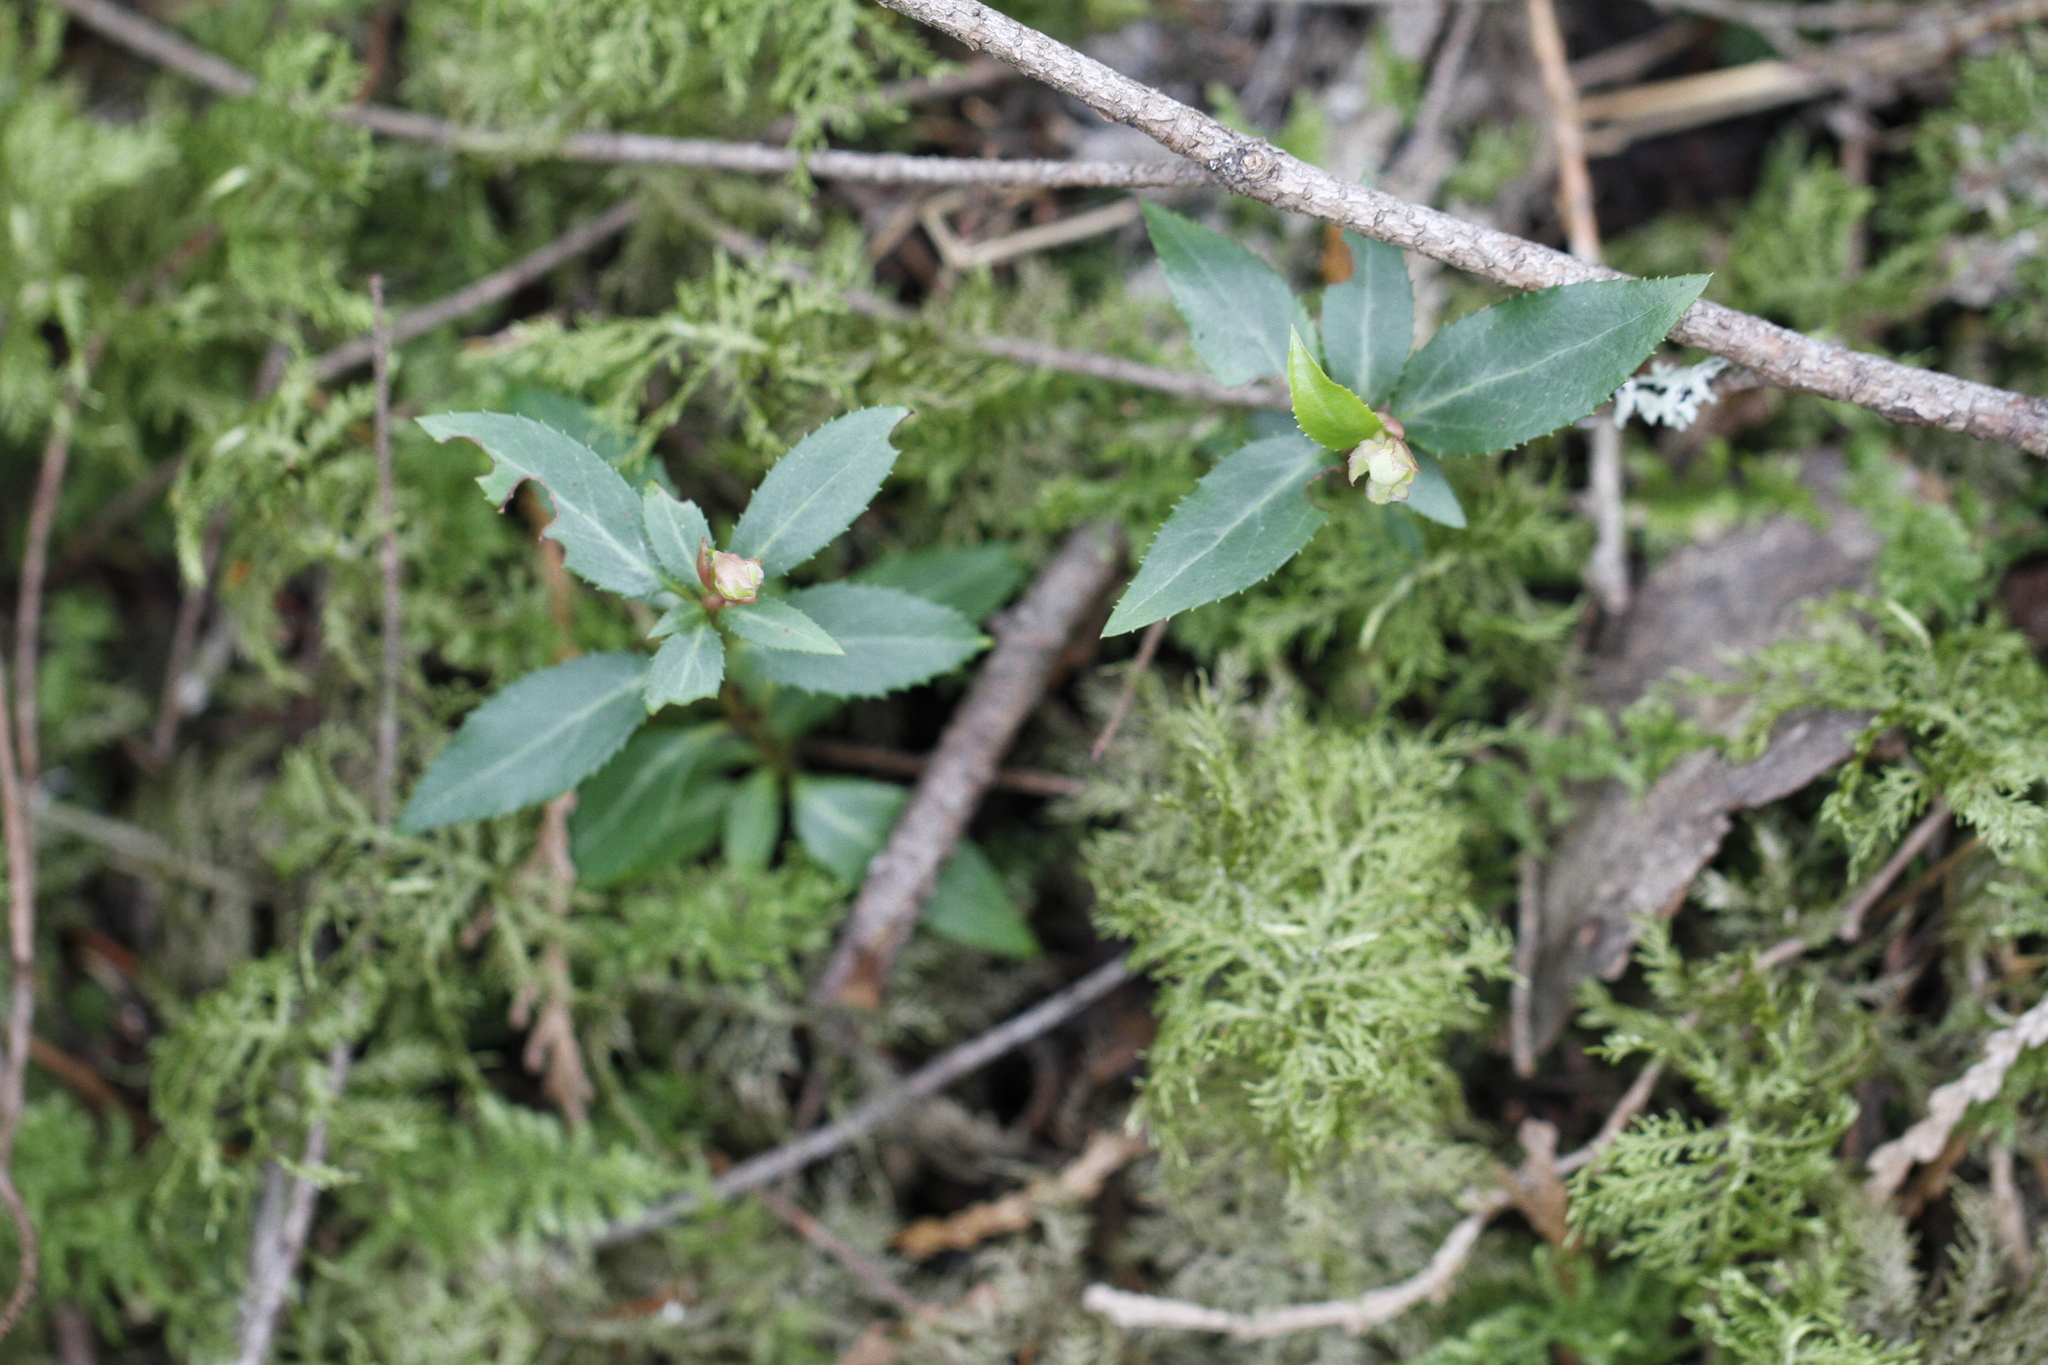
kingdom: Plantae
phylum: Tracheophyta
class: Magnoliopsida
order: Ericales
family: Ericaceae
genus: Chimaphila
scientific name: Chimaphila menziesii
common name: Menzies' pipsissewa
